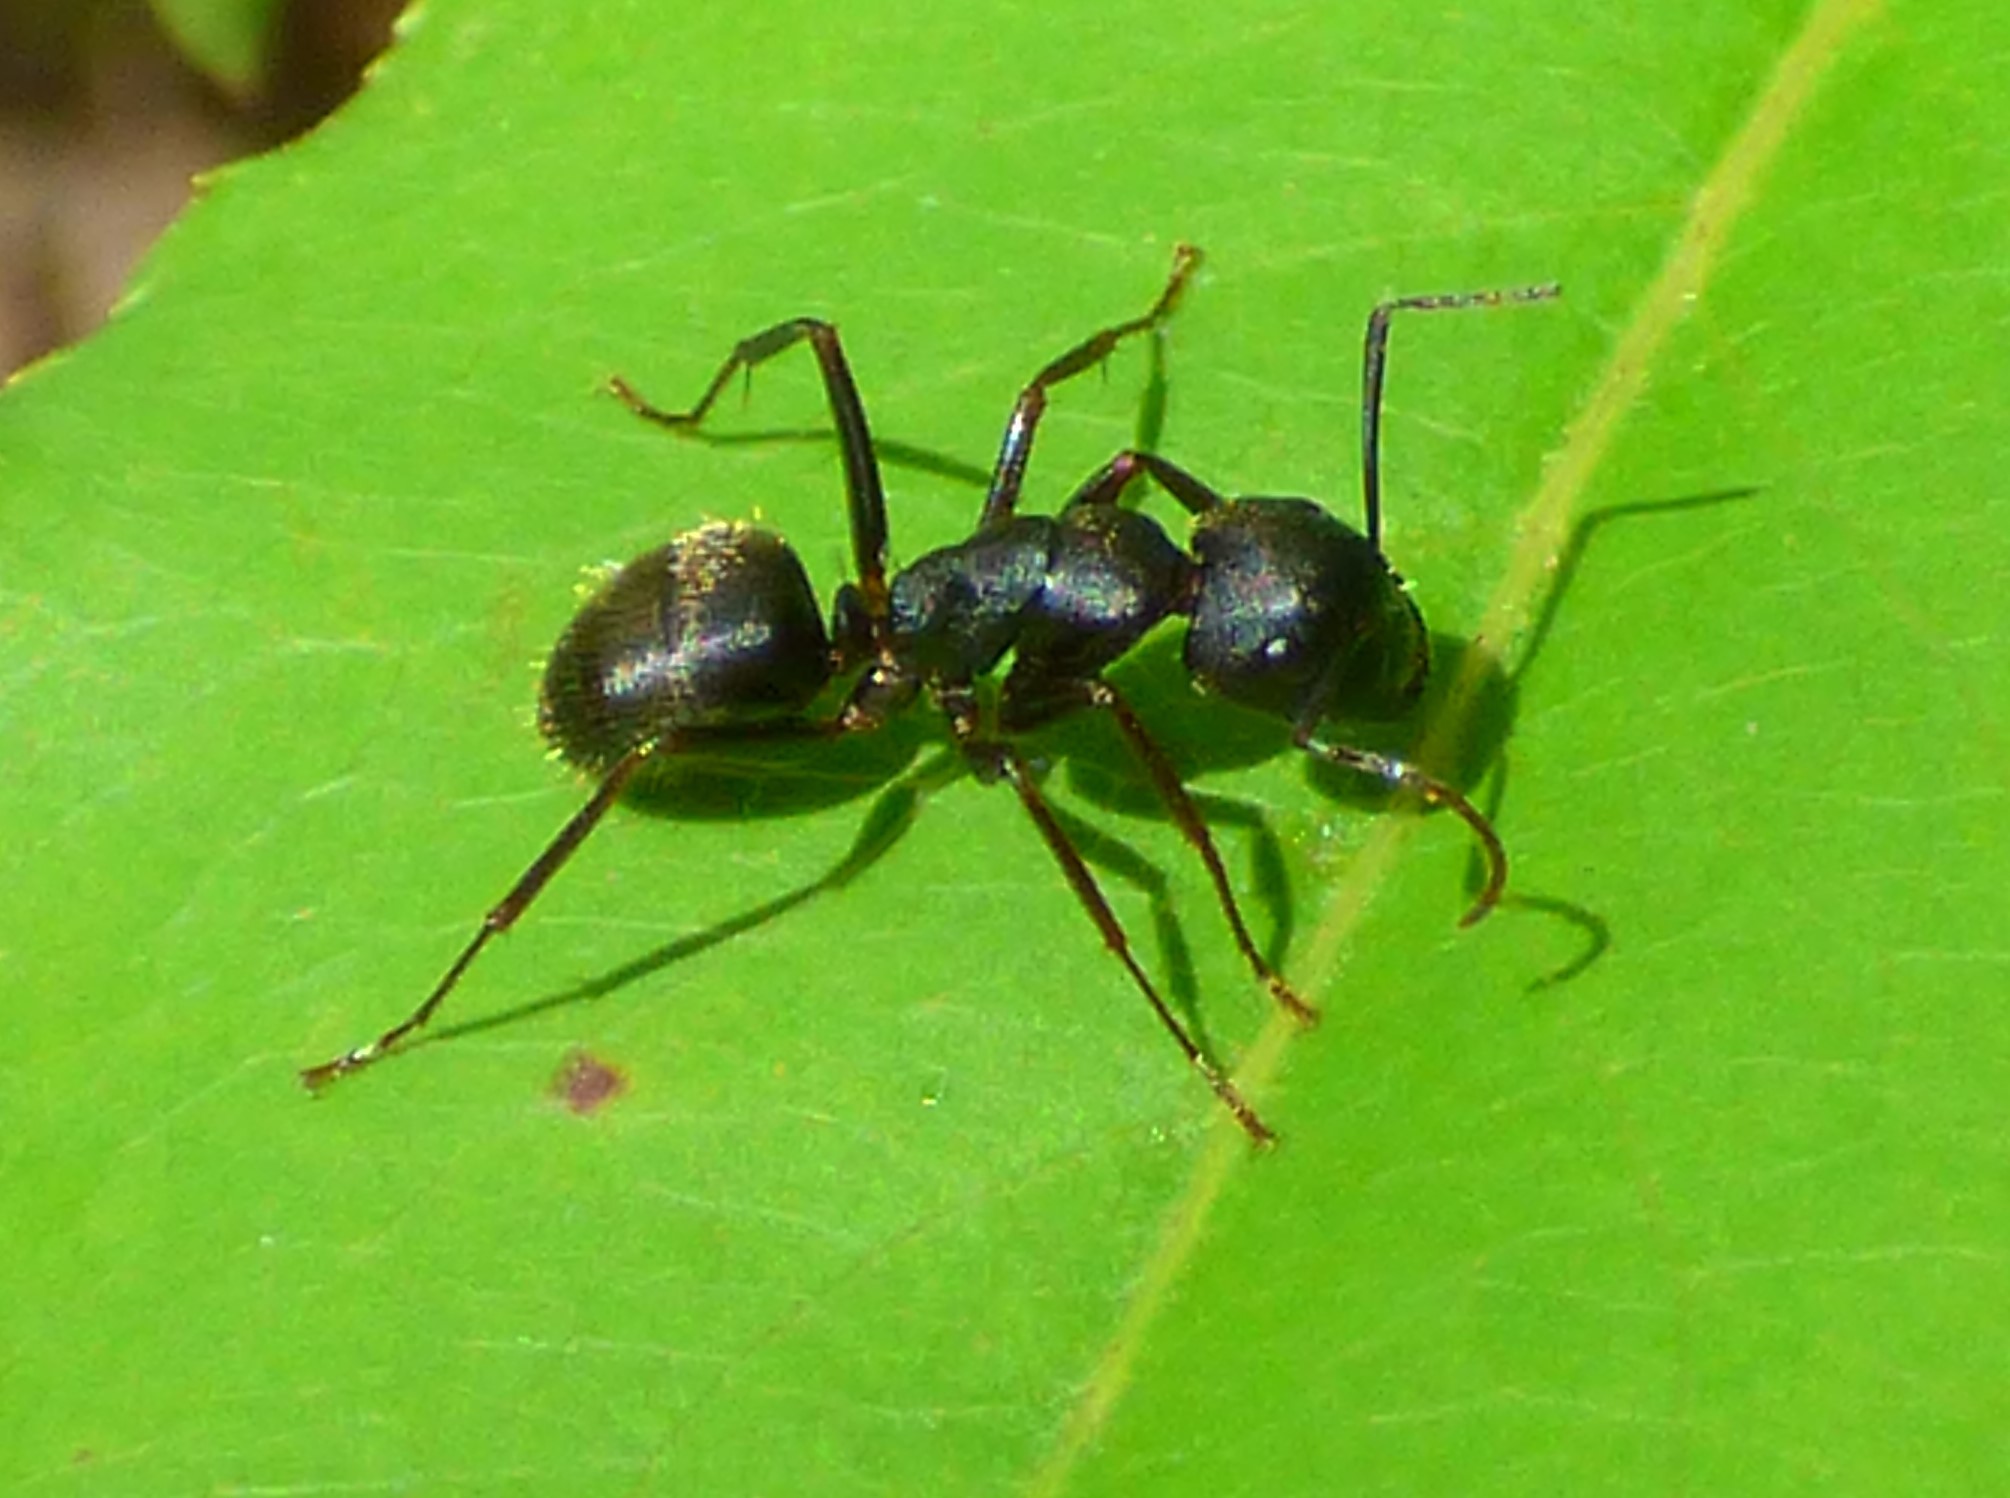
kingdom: Animalia
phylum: Arthropoda
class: Insecta
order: Hymenoptera
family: Formicidae
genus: Camponotus
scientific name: Camponotus pennsylvanicus
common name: Black carpenter ant
